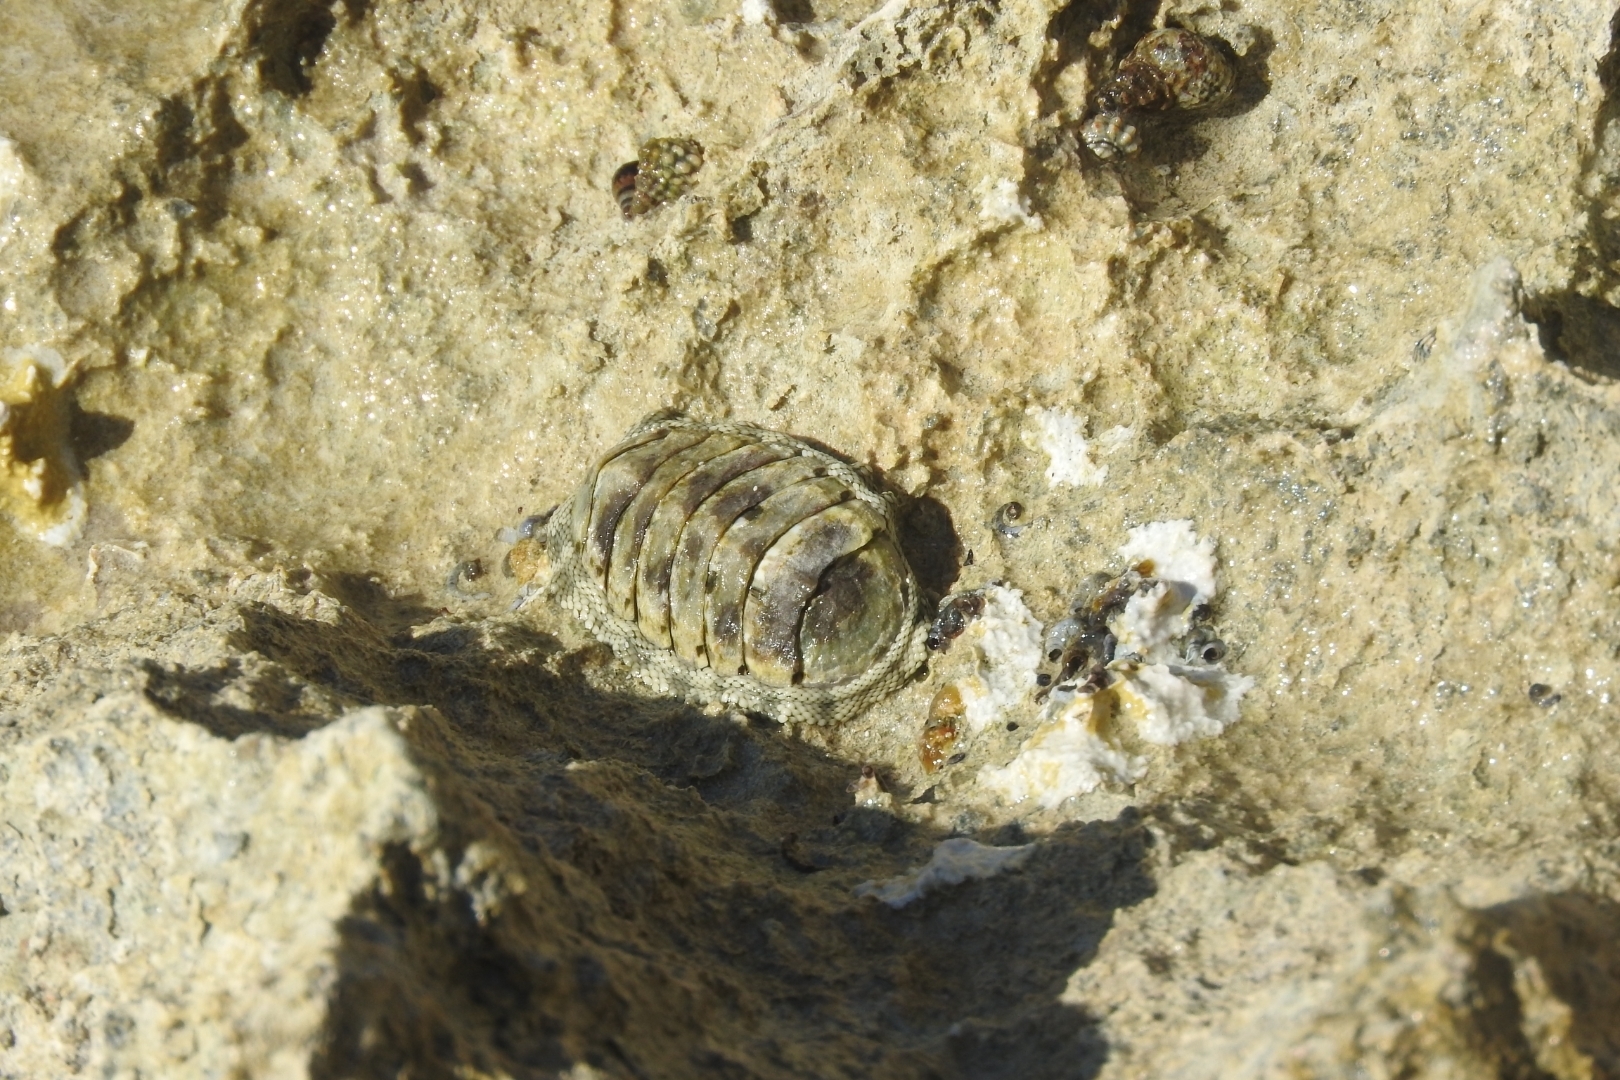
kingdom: Animalia
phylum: Mollusca
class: Polyplacophora
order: Chitonida
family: Chitonidae
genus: Chiton
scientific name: Chiton squamosus
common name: Squamose chiton
